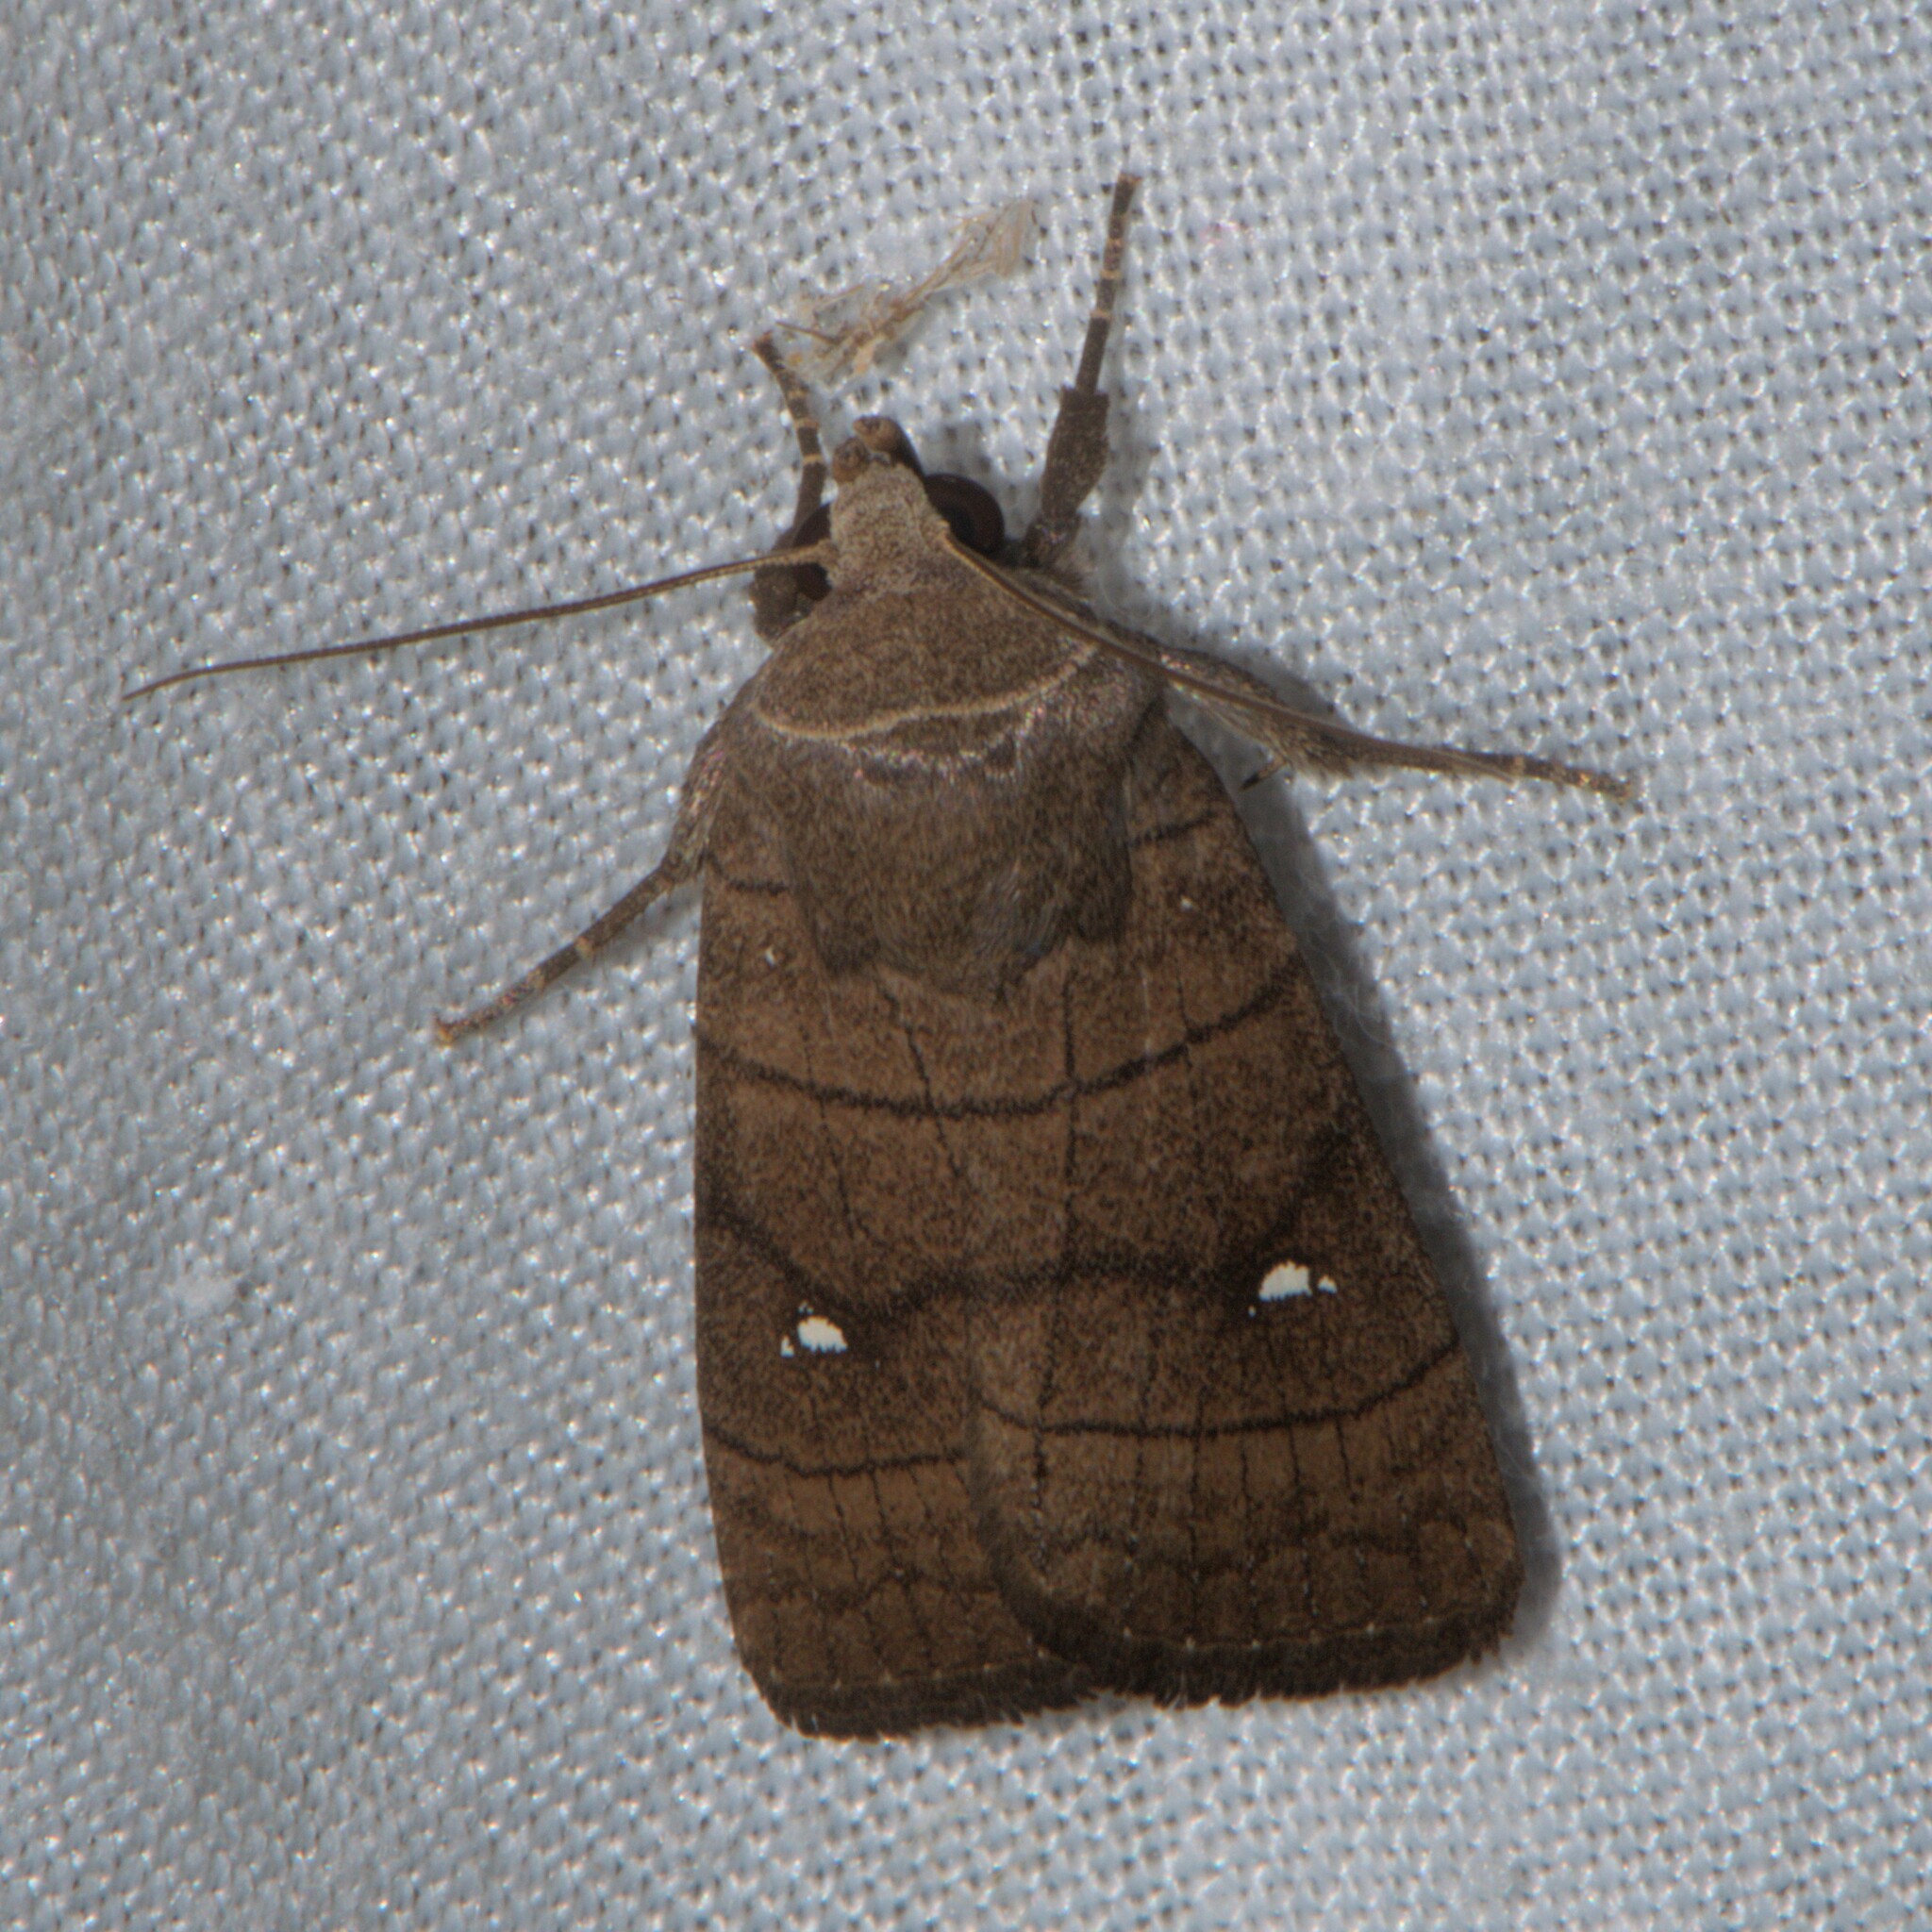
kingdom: Animalia
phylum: Arthropoda
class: Insecta
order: Lepidoptera
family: Noctuidae
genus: Athetis
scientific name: Athetis bipuncta
